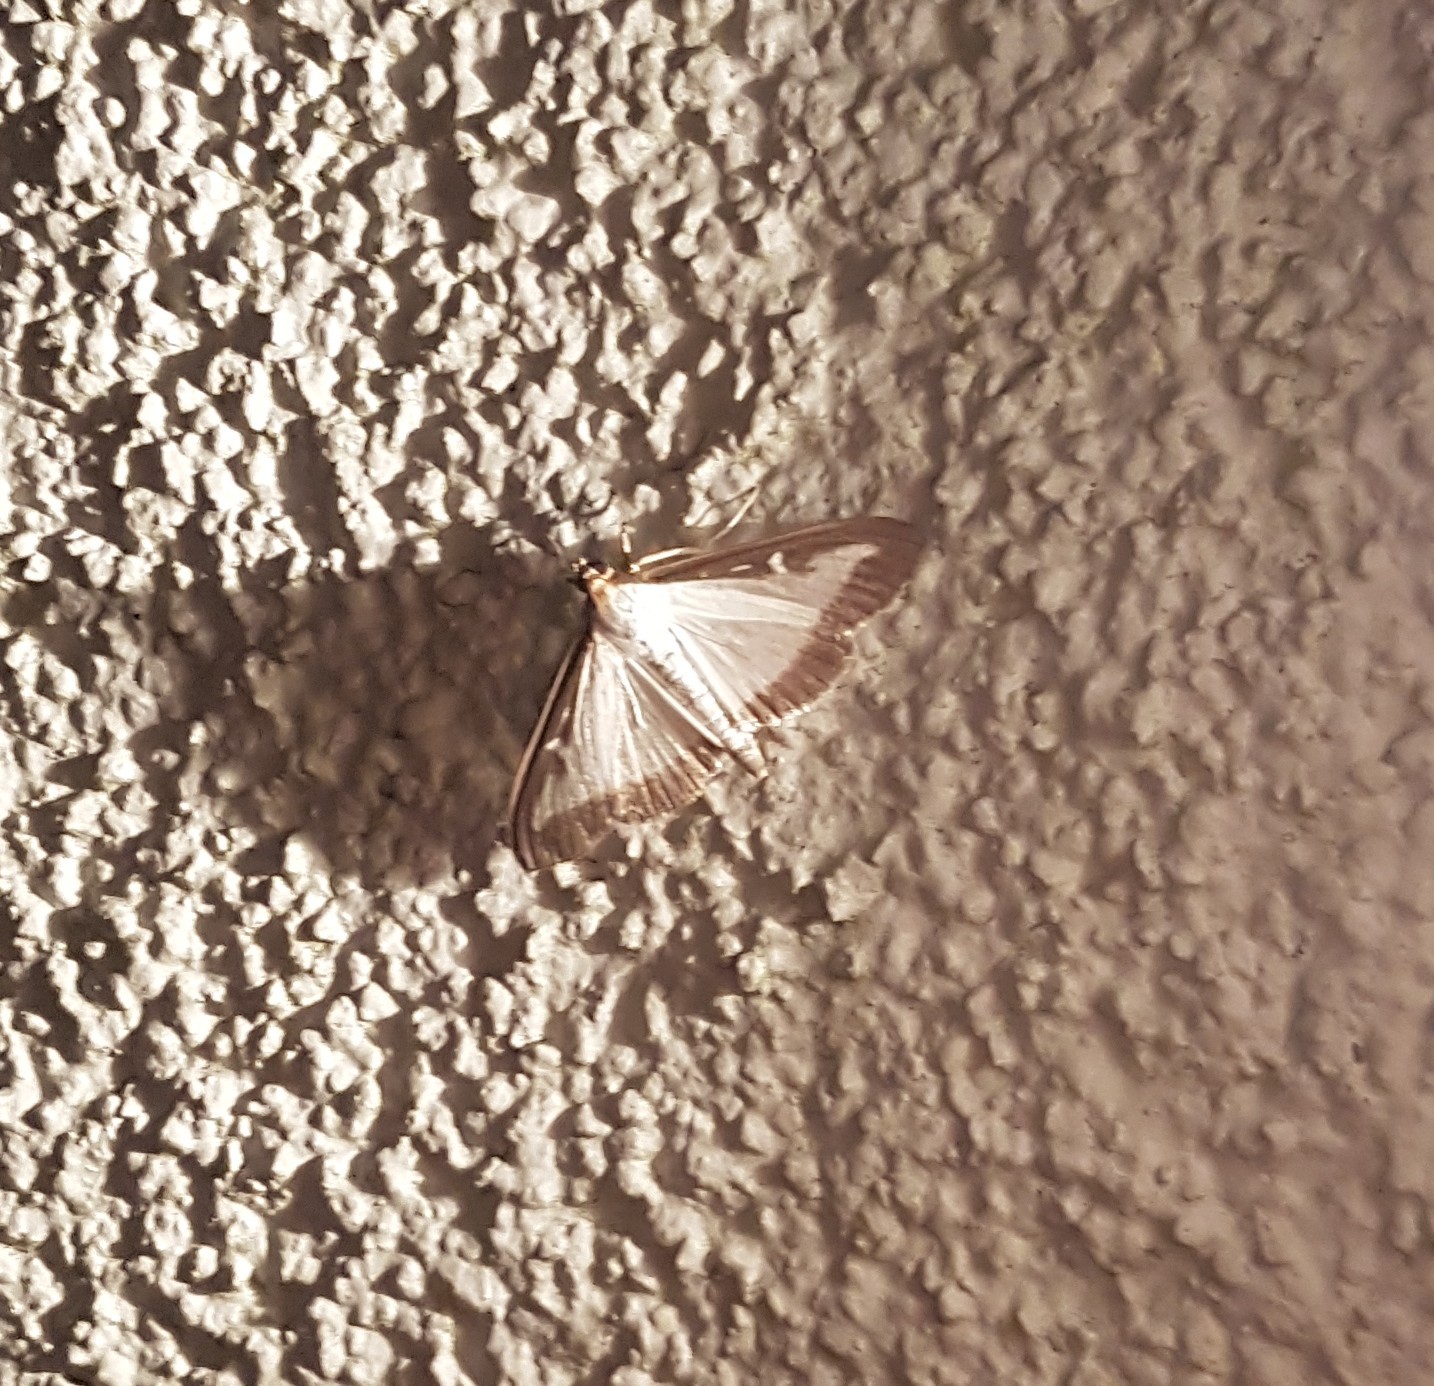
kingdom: Animalia
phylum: Arthropoda
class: Insecta
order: Lepidoptera
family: Crambidae
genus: Cydalima
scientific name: Cydalima perspectalis
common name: Box tree moth
